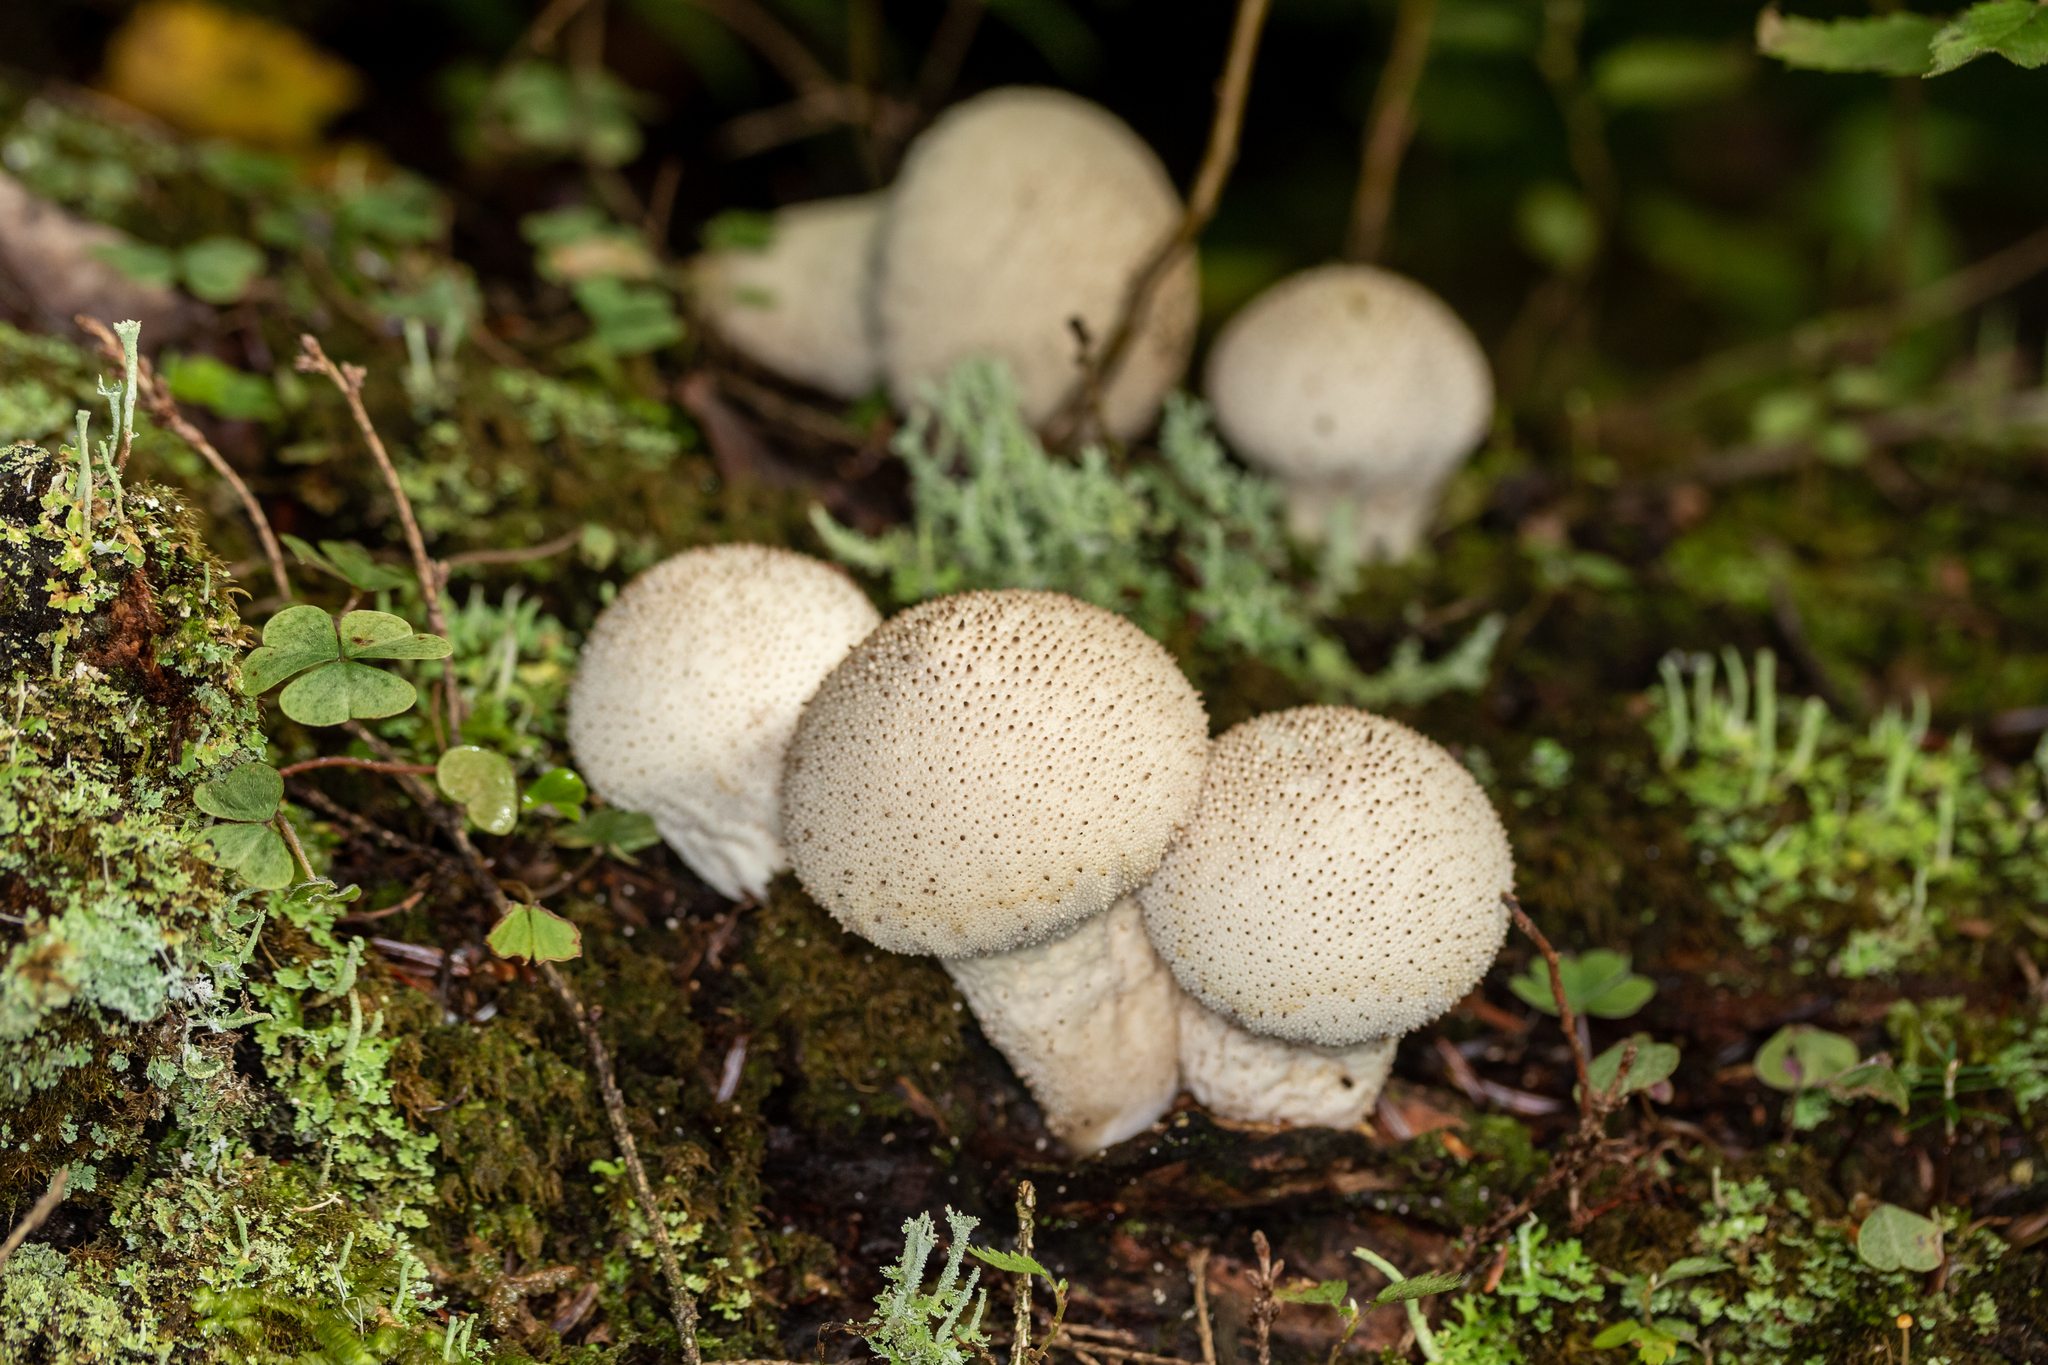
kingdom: Fungi
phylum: Basidiomycota
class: Agaricomycetes
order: Agaricales
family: Lycoperdaceae
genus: Lycoperdon
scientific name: Lycoperdon perlatum
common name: Common puffball
